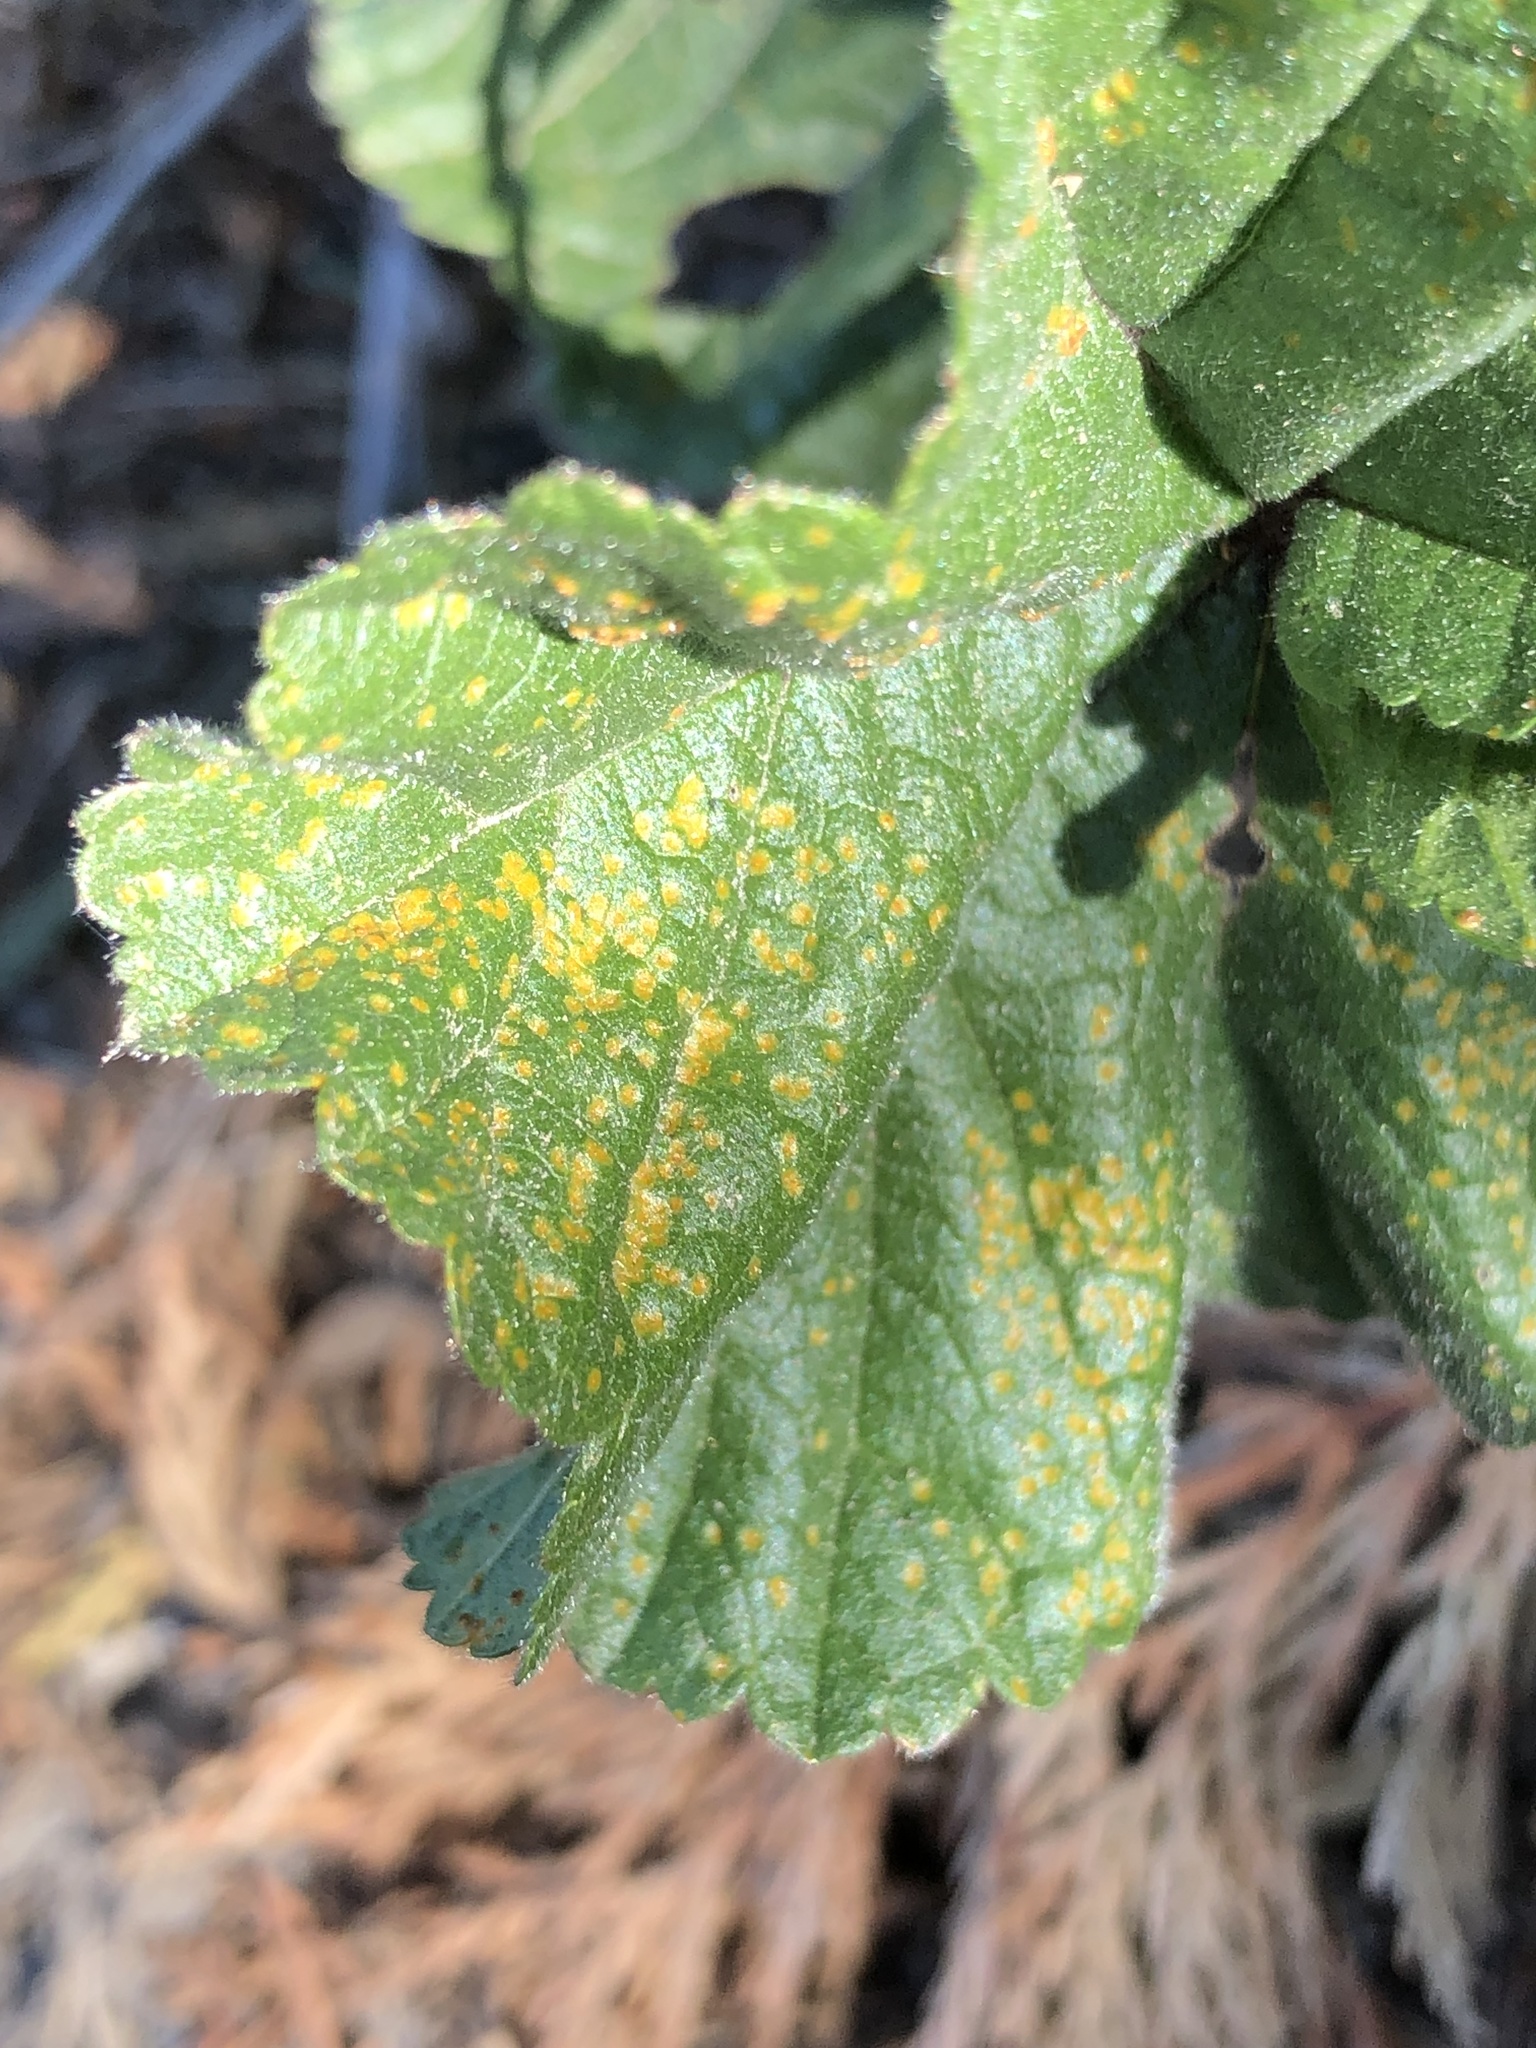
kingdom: Fungi
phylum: Basidiomycota
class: Pucciniomycetes
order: Pucciniales
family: Pucciniaceae
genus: Puccinia
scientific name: Puccinia malvacearum
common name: Hollyhock rust
